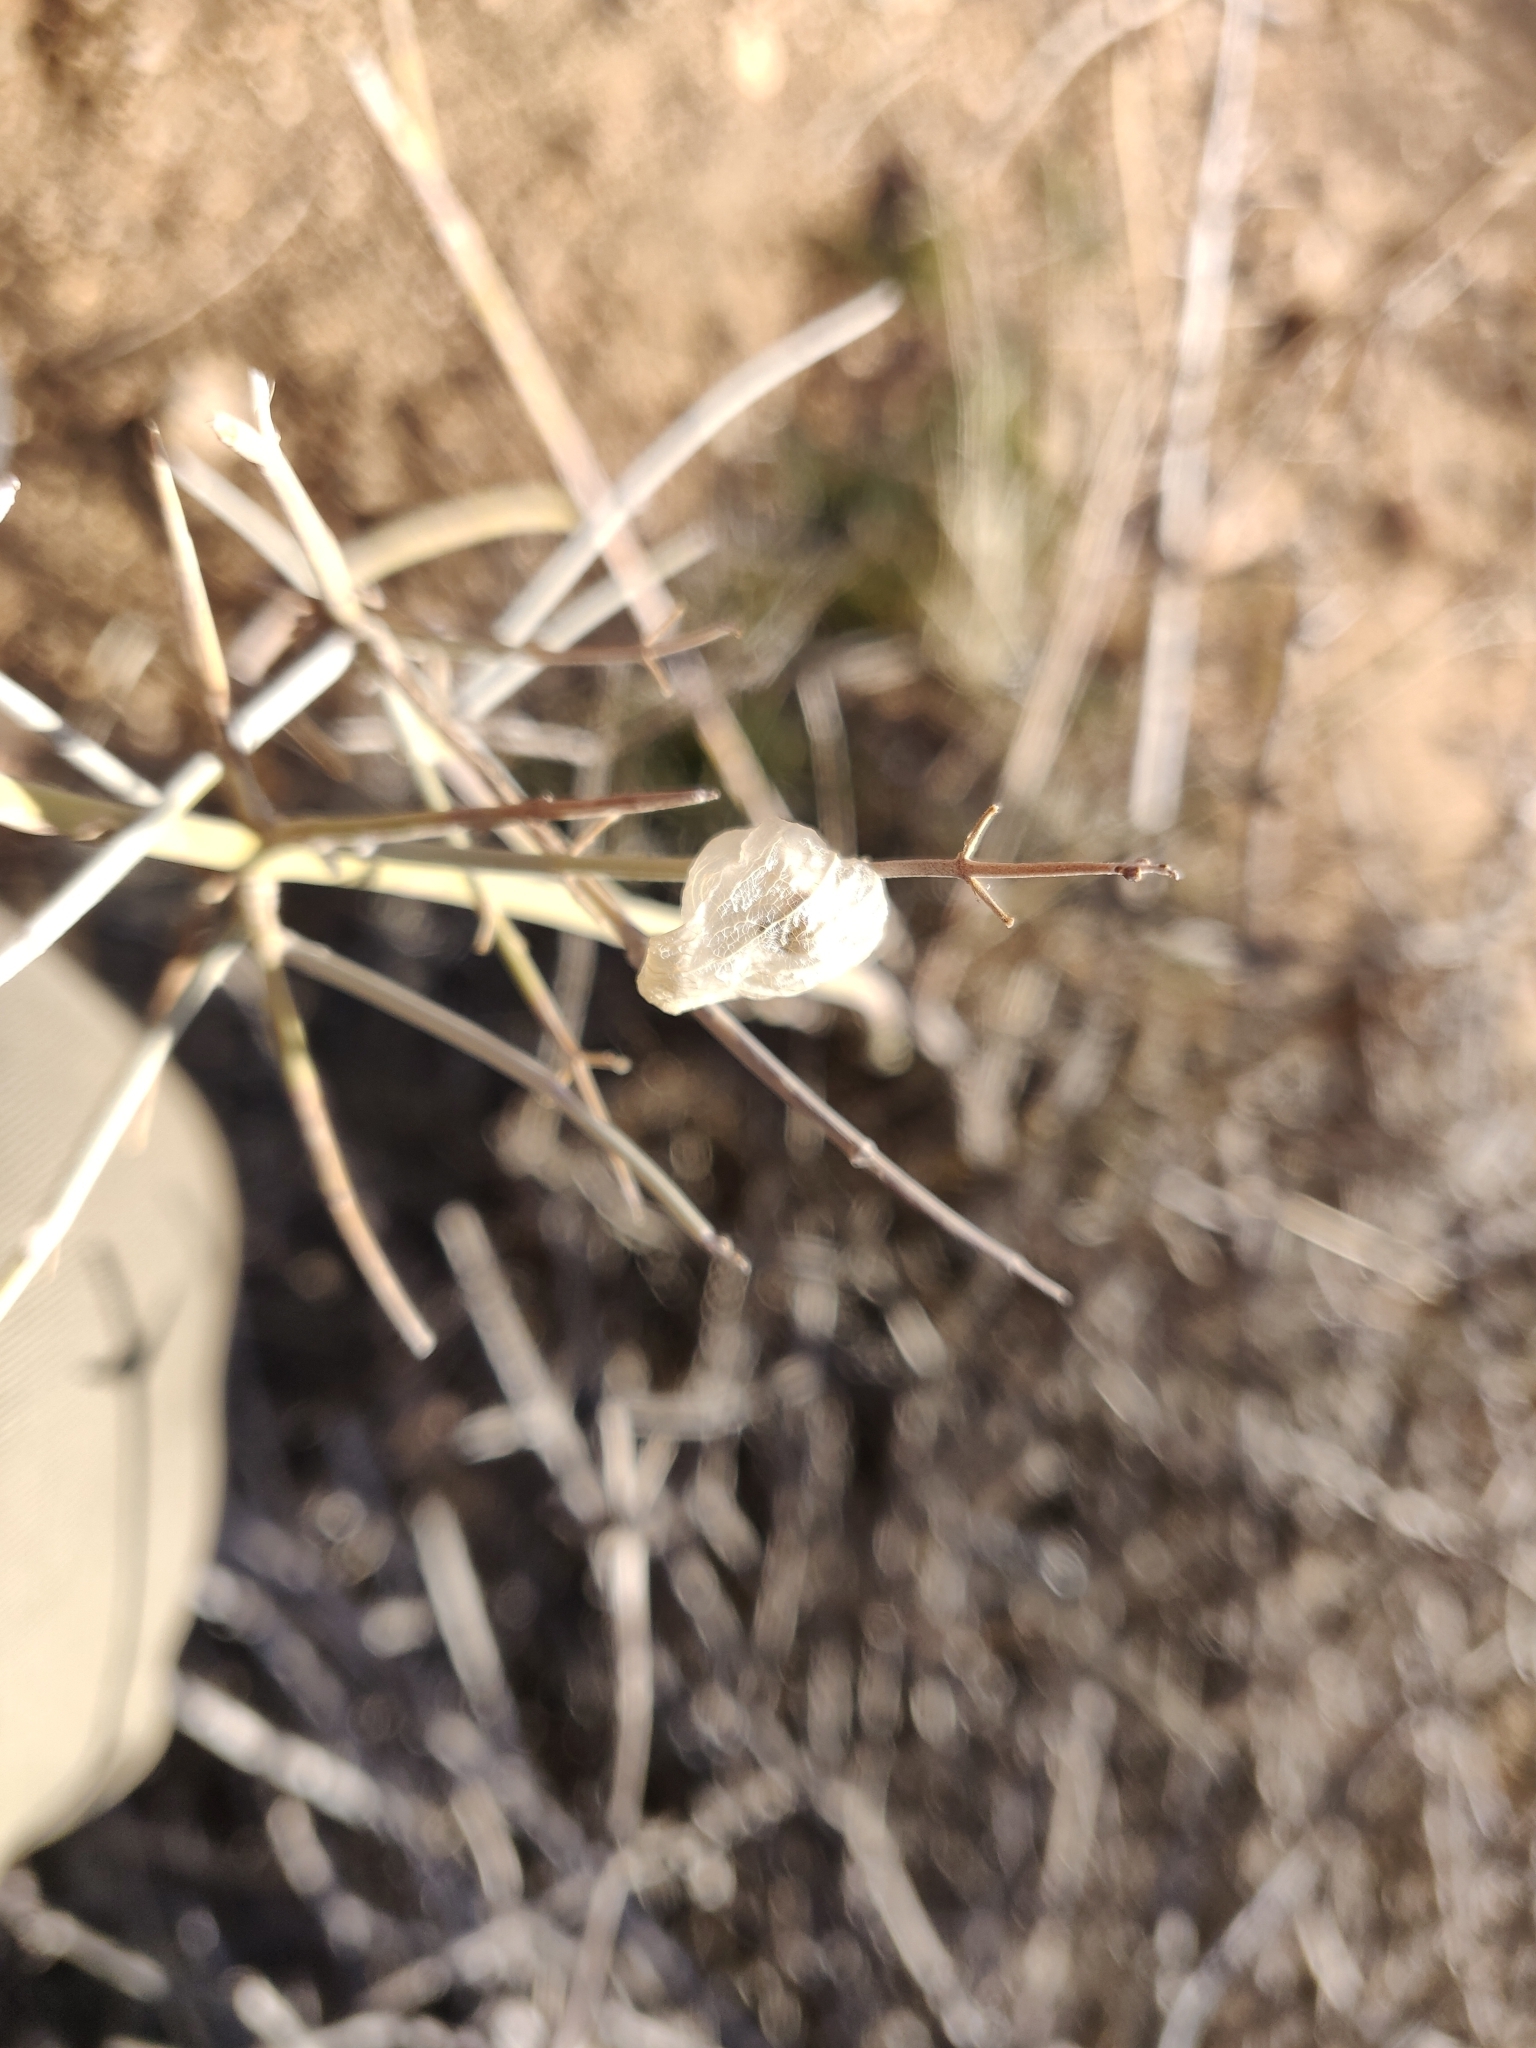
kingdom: Plantae
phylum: Tracheophyta
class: Magnoliopsida
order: Lamiales
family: Lamiaceae
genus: Scutellaria
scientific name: Scutellaria mexicana
